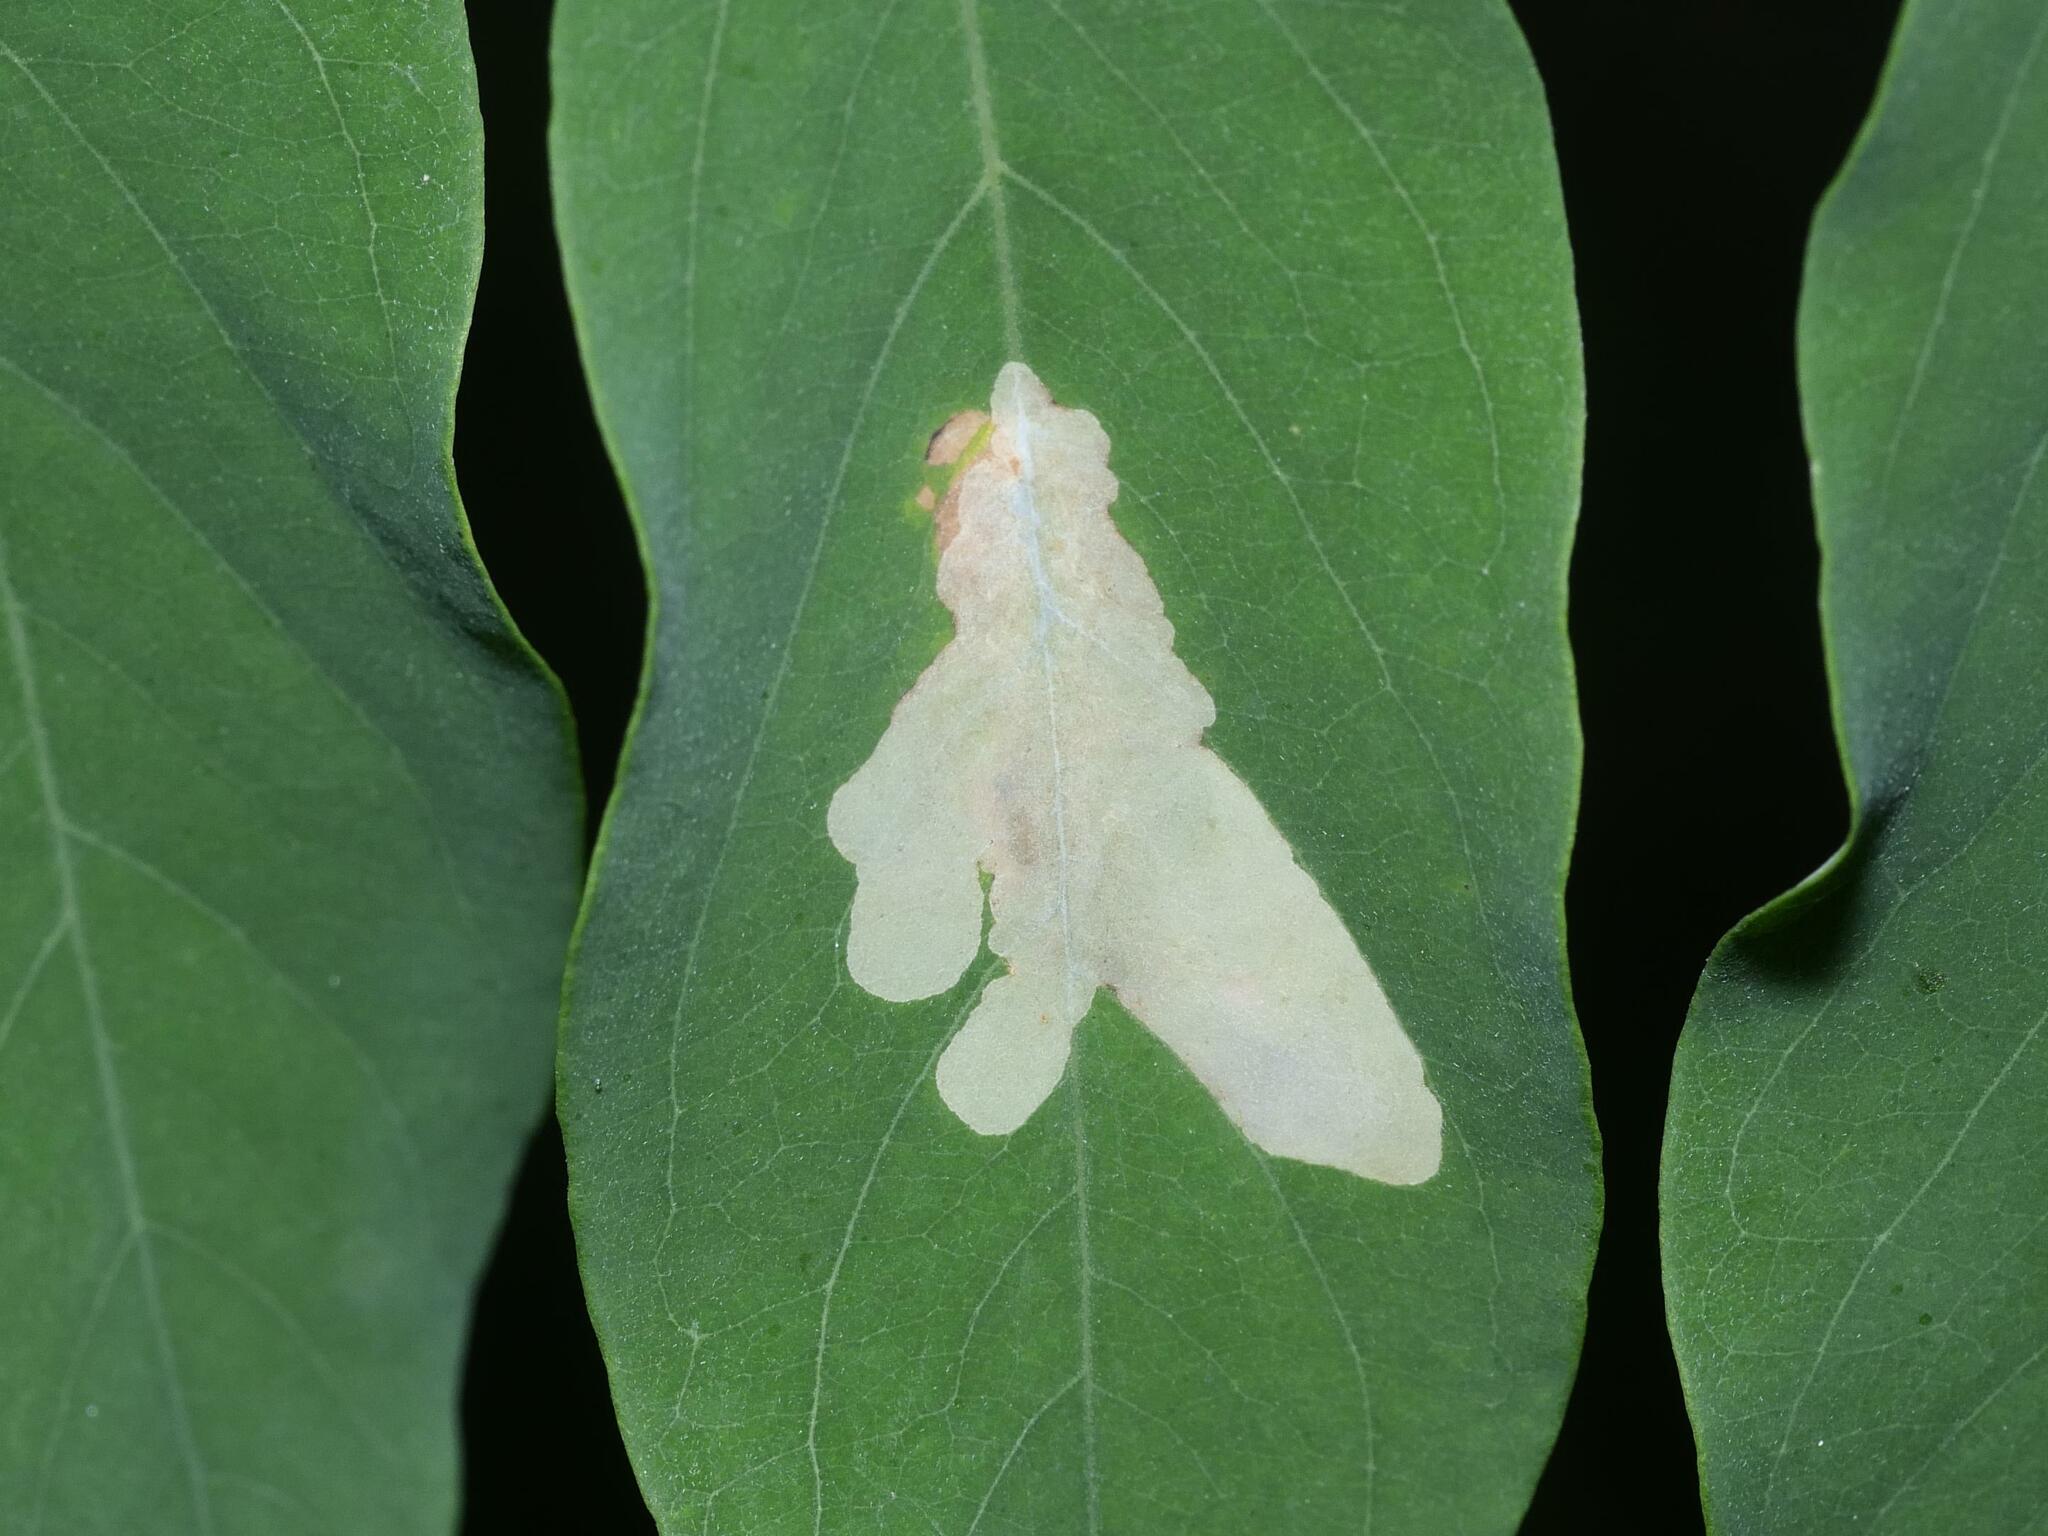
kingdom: Animalia
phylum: Arthropoda
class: Insecta
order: Lepidoptera
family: Gracillariidae
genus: Parectopa
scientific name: Parectopa robiniella
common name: Locust digitate leafminer
